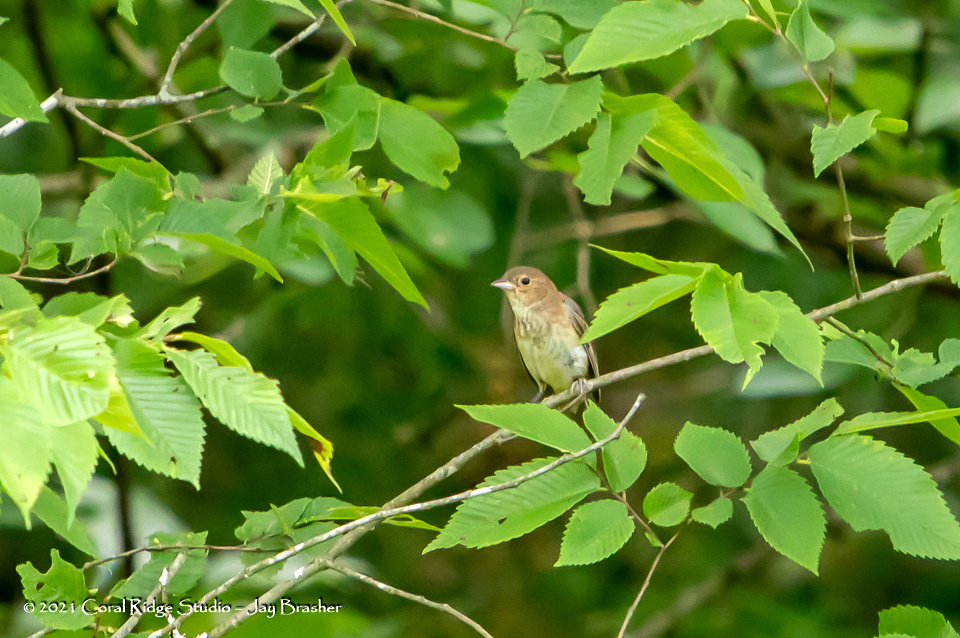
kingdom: Animalia
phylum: Chordata
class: Aves
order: Passeriformes
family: Cardinalidae
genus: Passerina
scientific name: Passerina cyanea
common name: Indigo bunting
